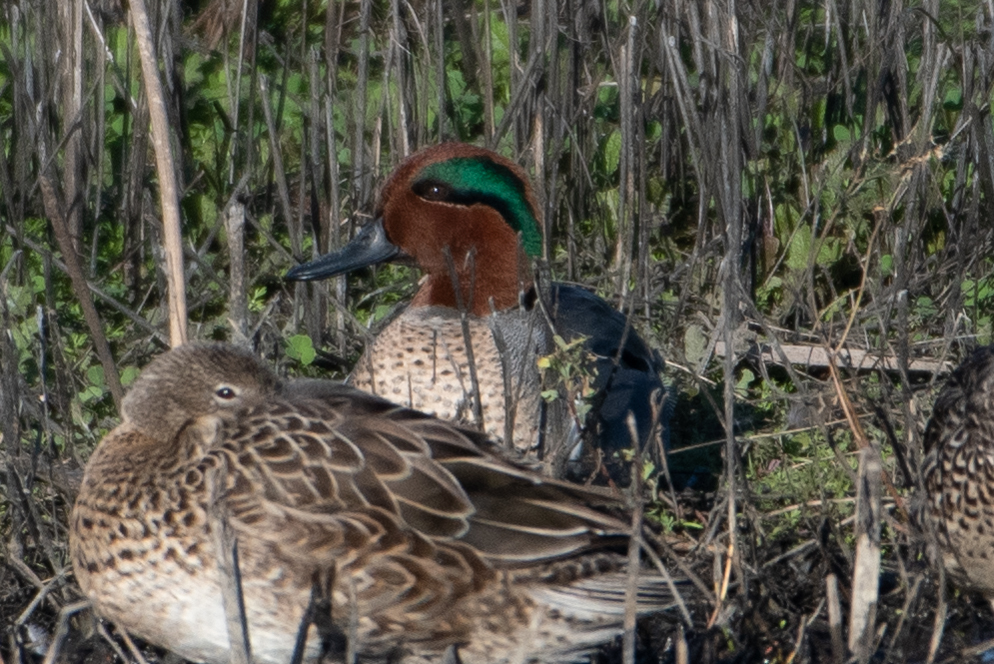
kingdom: Animalia
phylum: Chordata
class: Aves
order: Anseriformes
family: Anatidae
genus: Anas
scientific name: Anas crecca
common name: Eurasian teal
